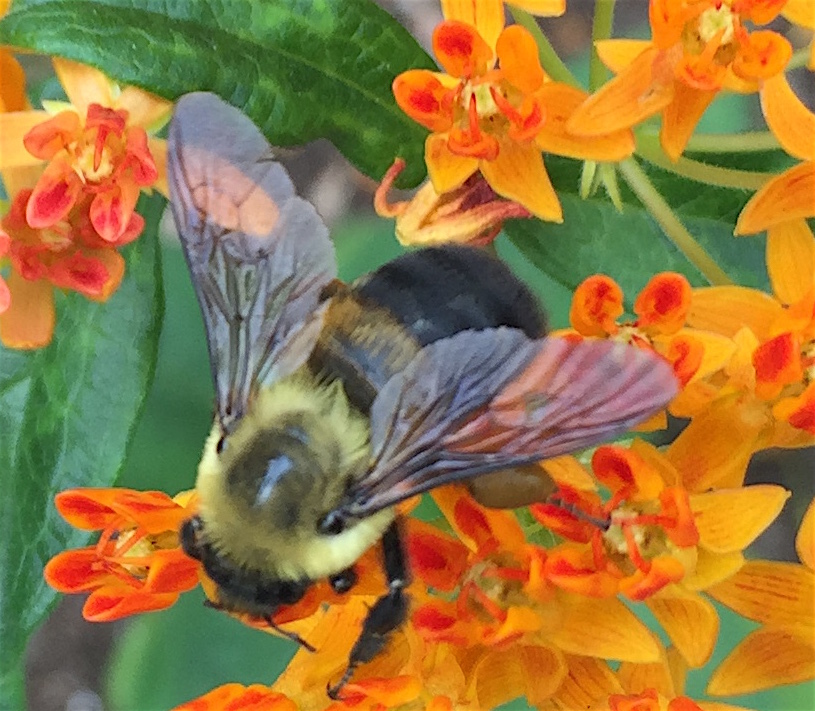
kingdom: Animalia
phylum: Arthropoda
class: Insecta
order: Hymenoptera
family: Apidae
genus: Bombus
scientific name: Bombus griseocollis
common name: Brown-belted bumble bee
